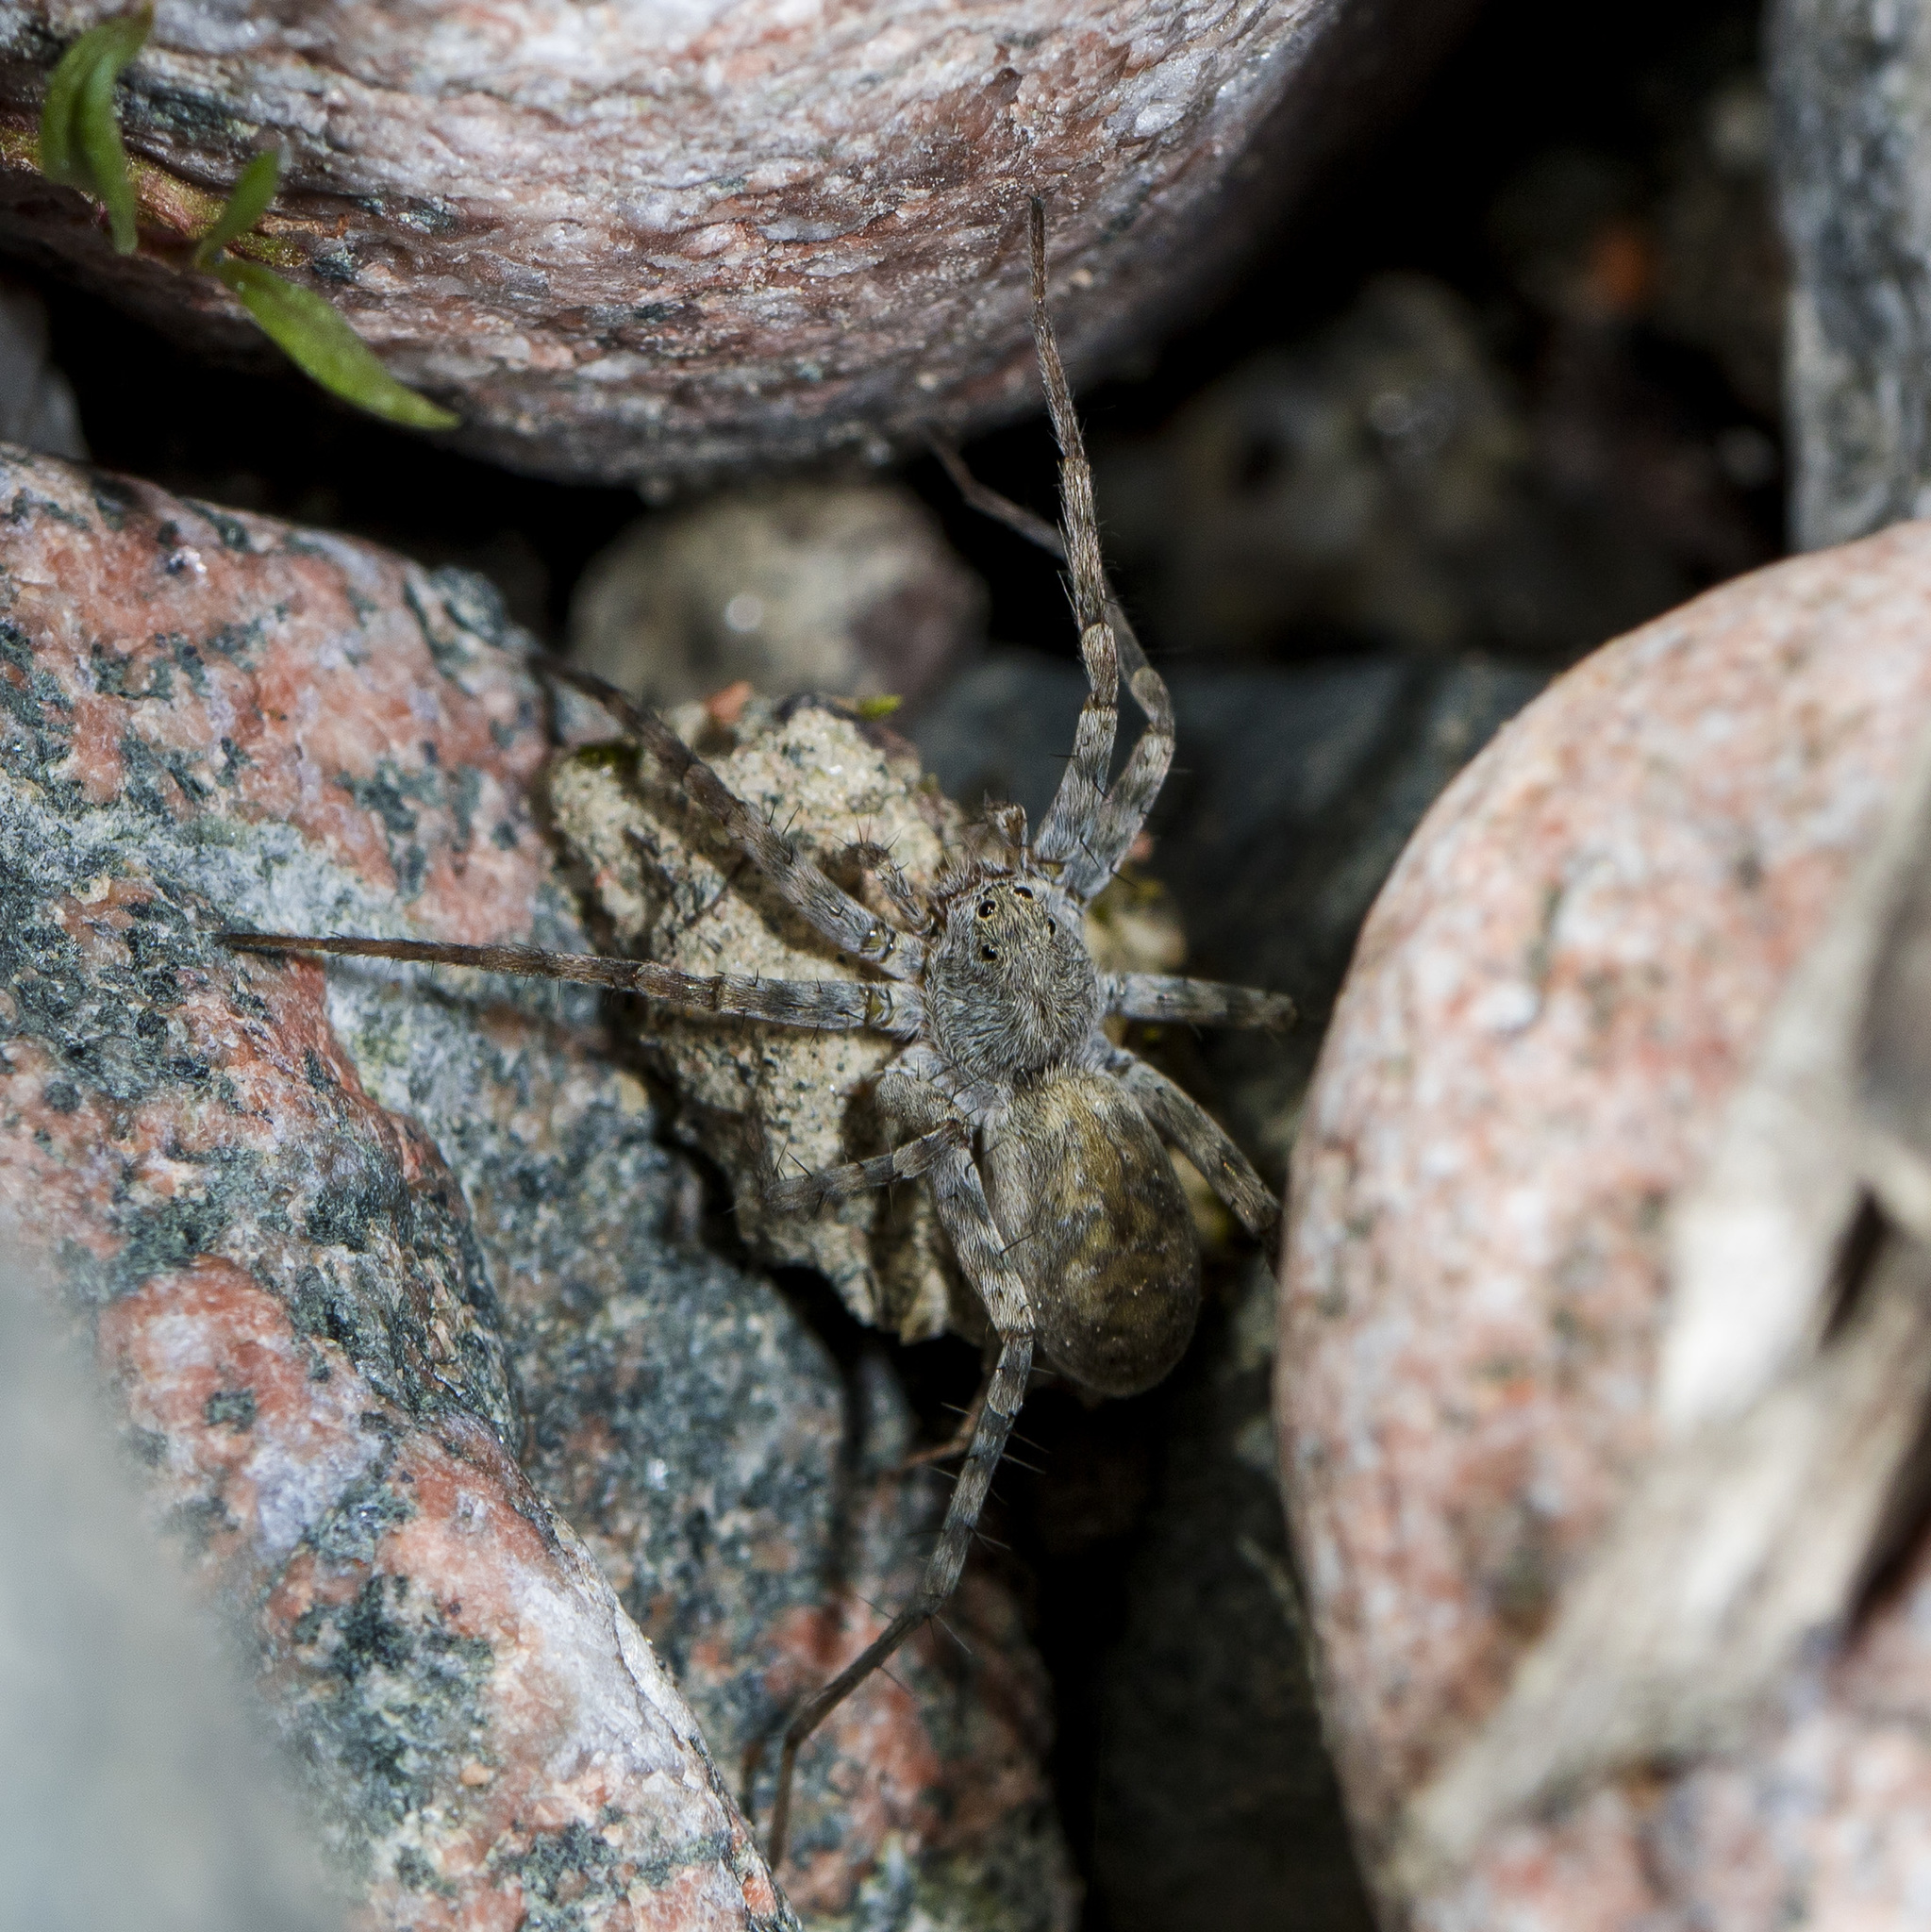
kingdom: Animalia
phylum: Arthropoda
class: Arachnida
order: Araneae
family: Lycosidae
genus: Pardosa
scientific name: Pardosa falcata
